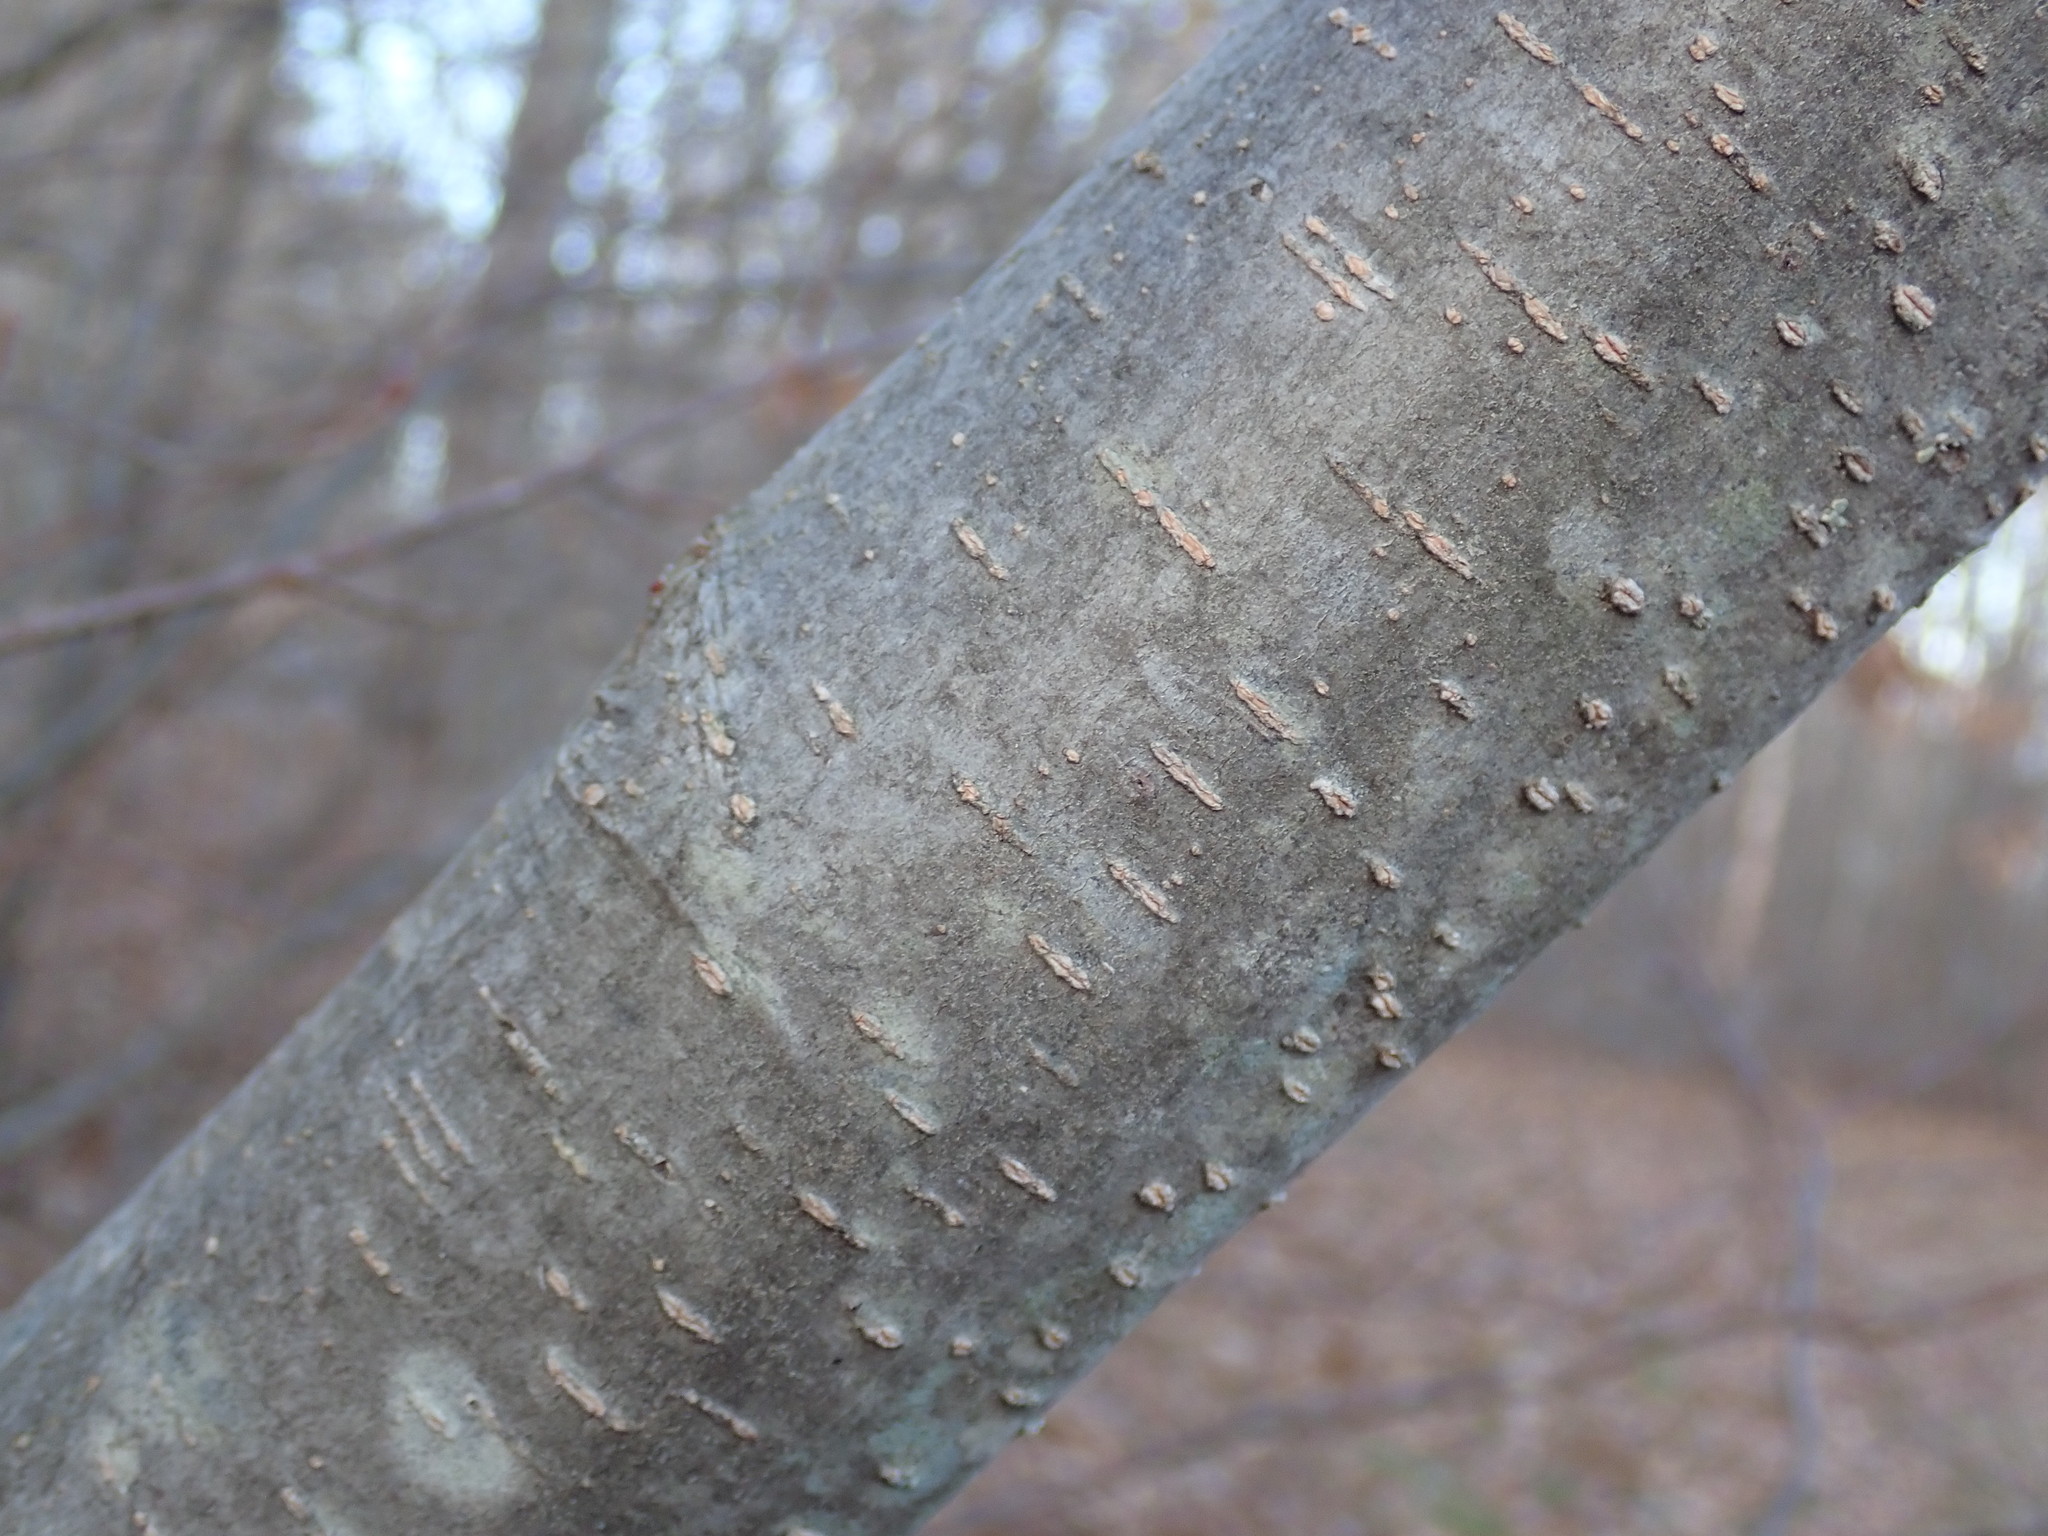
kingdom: Plantae
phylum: Tracheophyta
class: Magnoliopsida
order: Fagales
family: Betulaceae
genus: Alnus
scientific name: Alnus incana
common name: Grey alder
